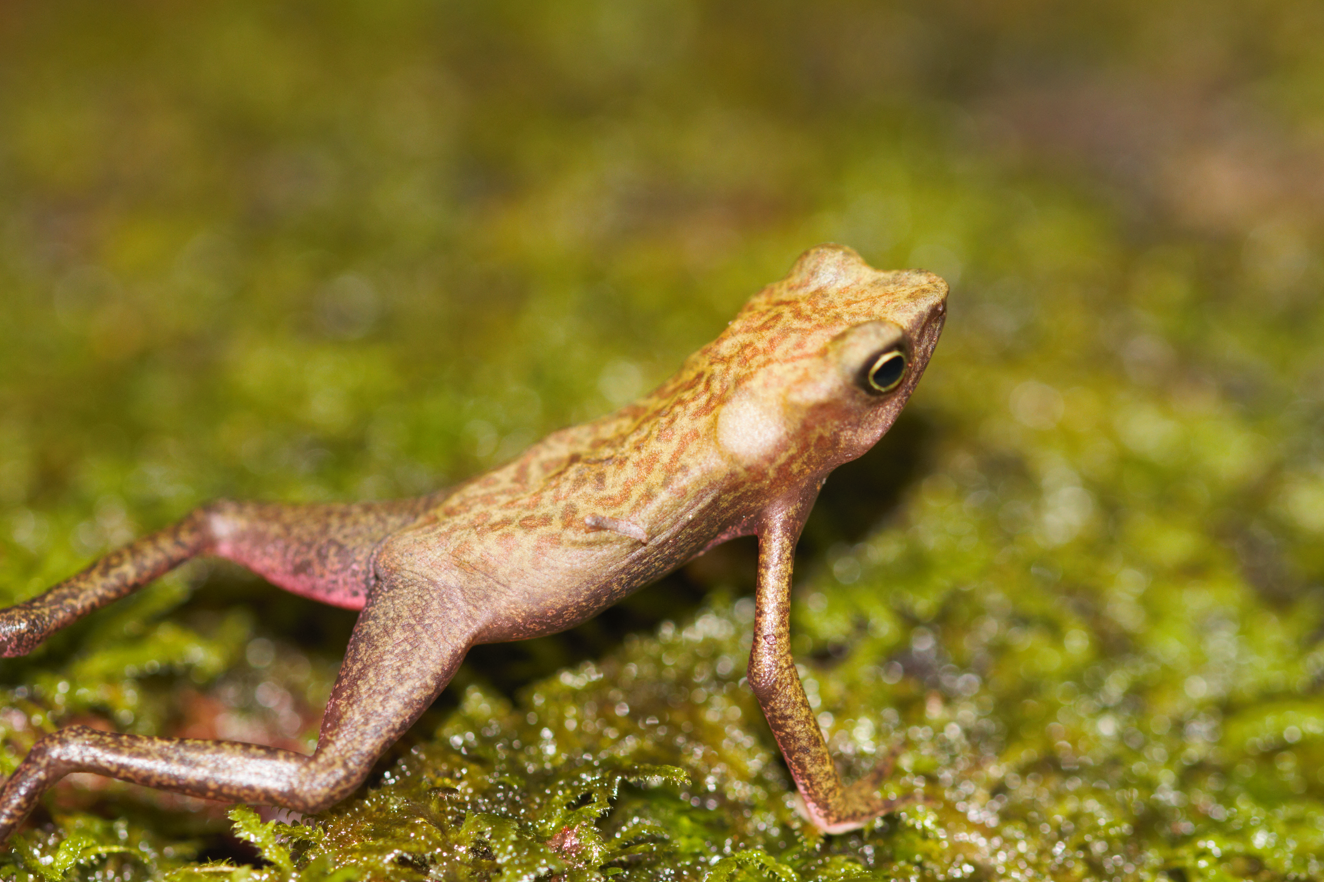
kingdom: Animalia
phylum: Chordata
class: Amphibia
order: Anura
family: Bufonidae
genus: Atelopus
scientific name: Atelopus flavescens
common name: Cayenne stubfoot toad
